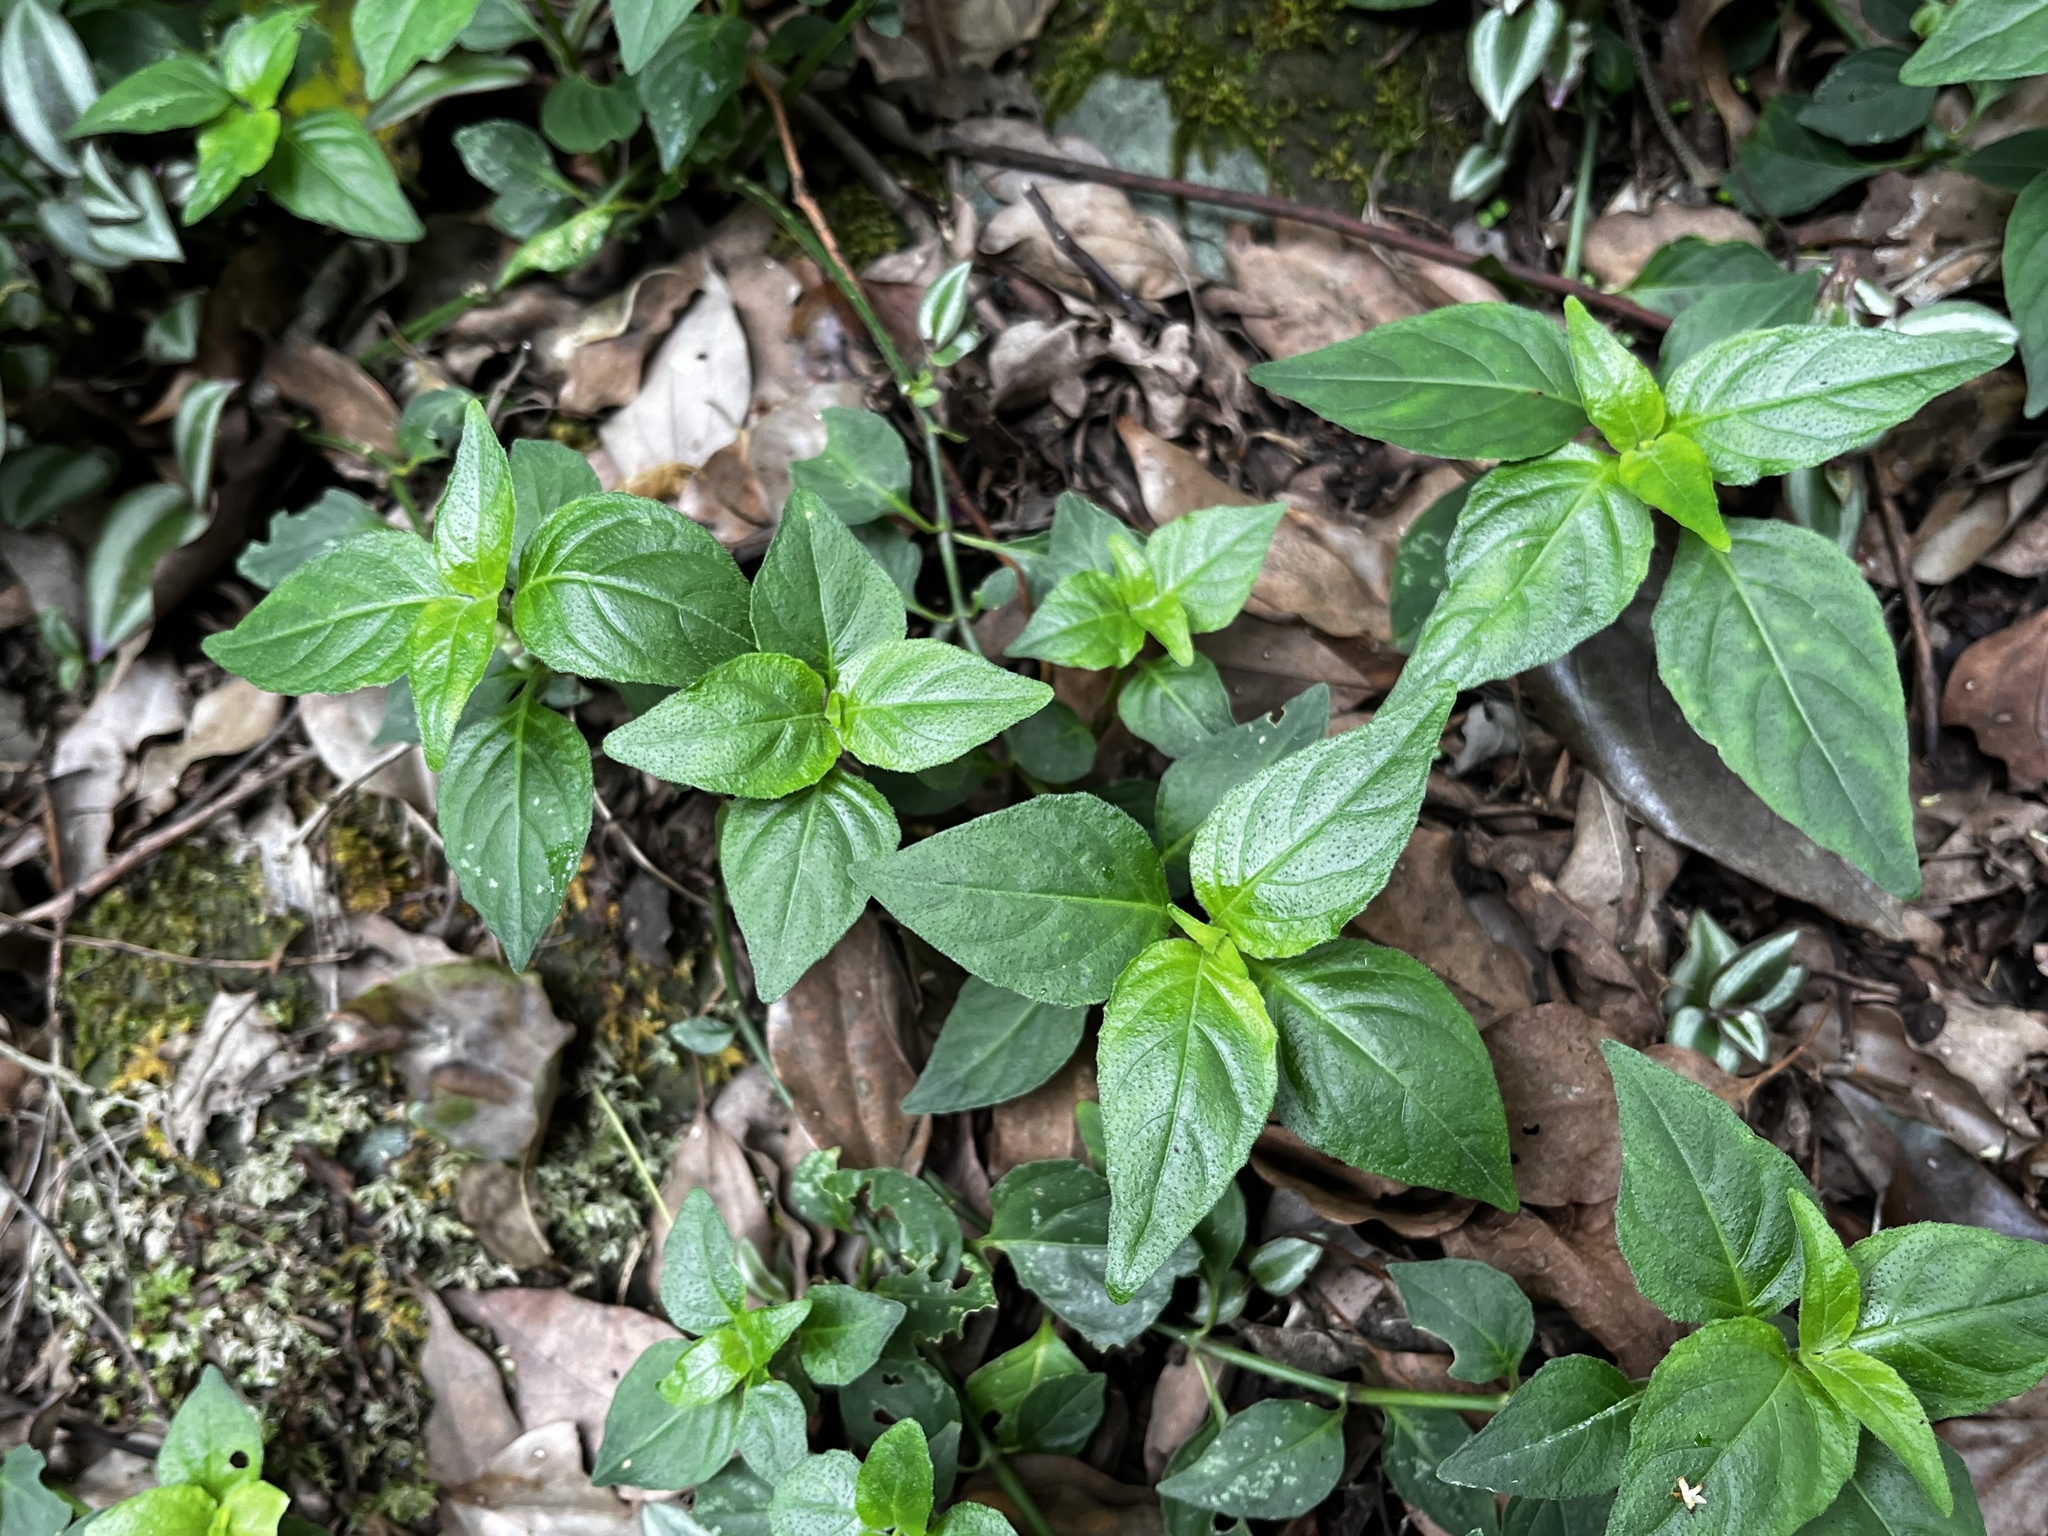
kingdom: Plantae
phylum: Tracheophyta
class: Liliopsida
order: Liliales
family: Melanthiaceae
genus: Paris
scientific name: Paris polyphylla
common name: Love apple
